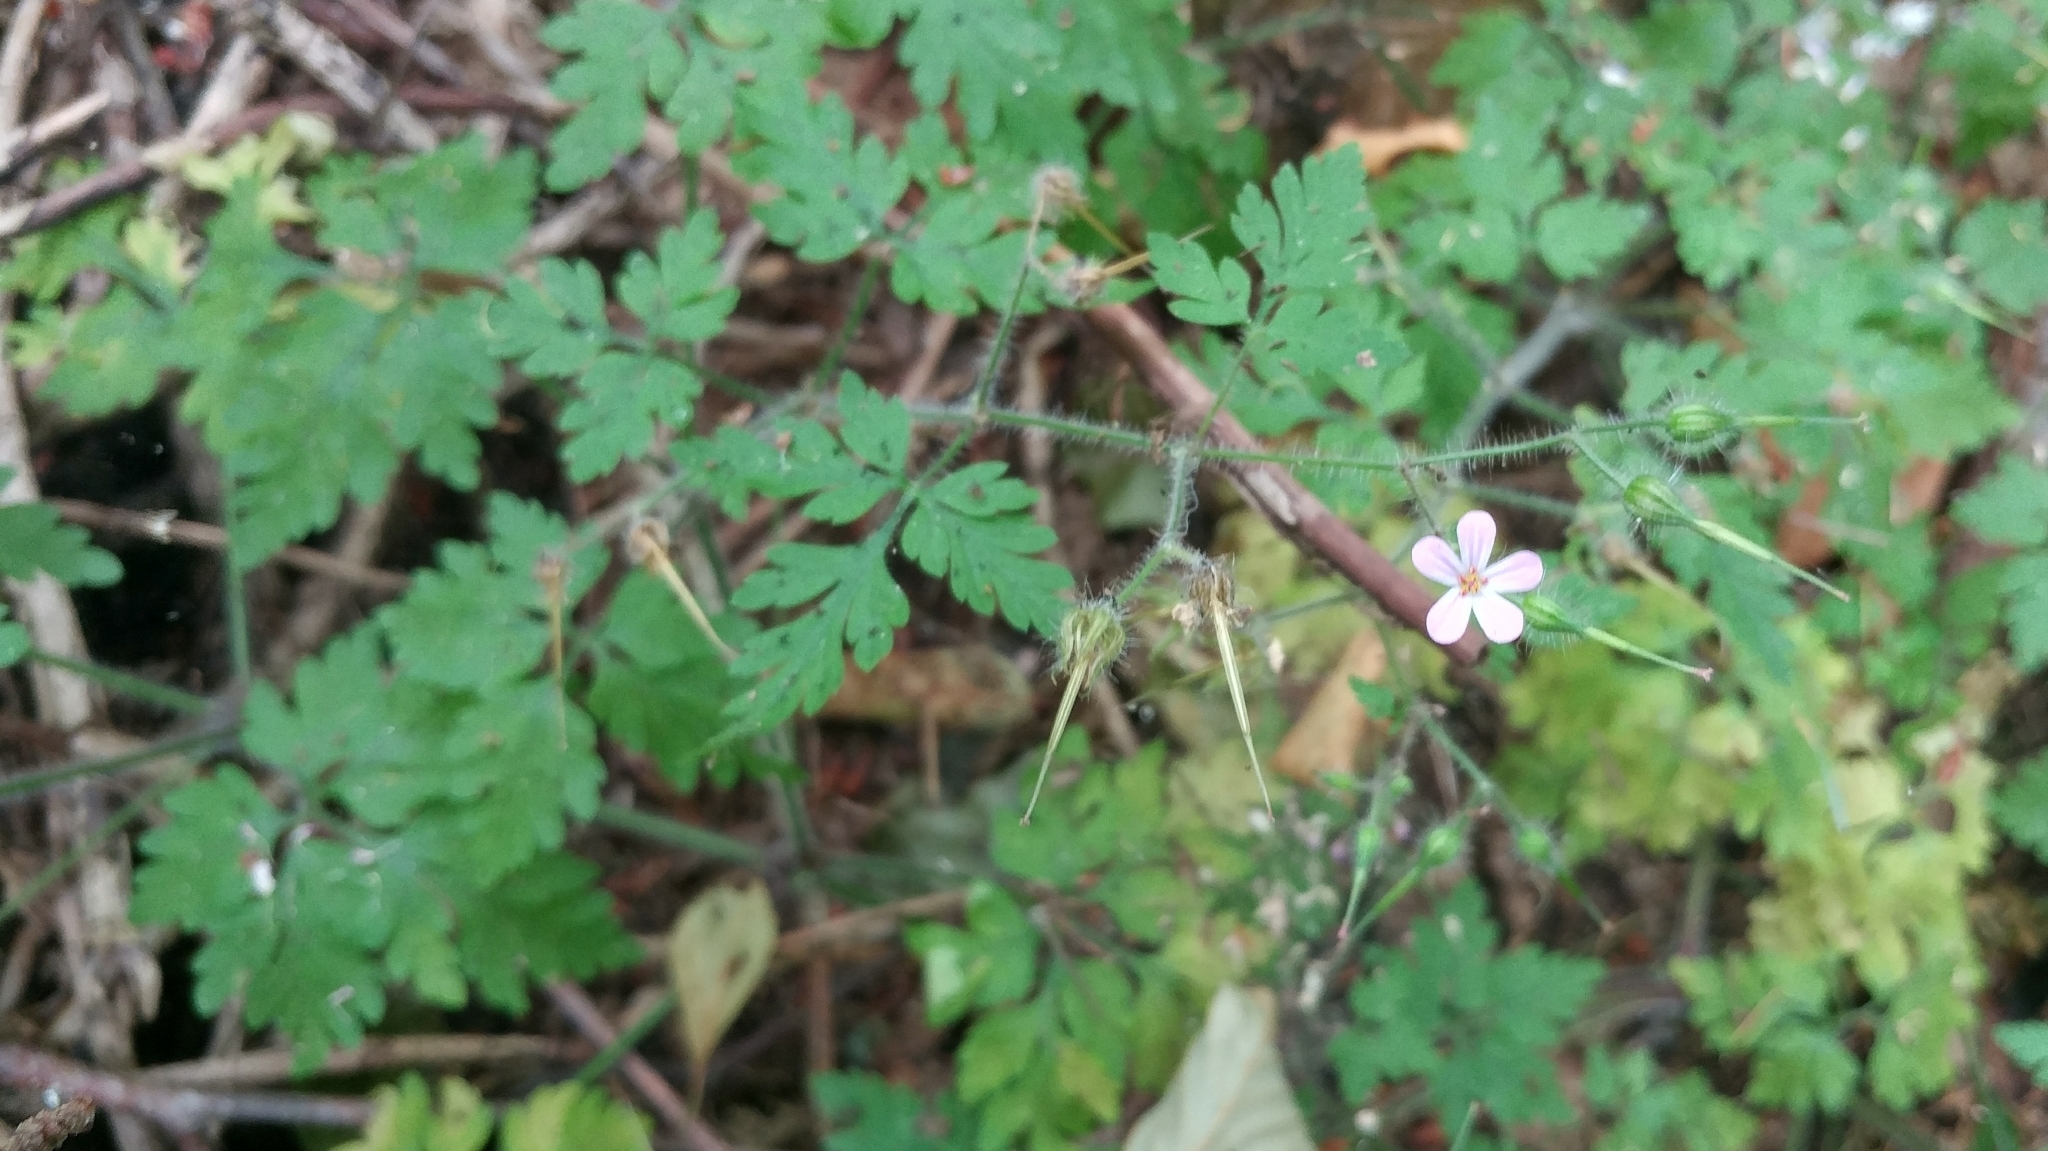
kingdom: Plantae
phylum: Tracheophyta
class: Magnoliopsida
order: Geraniales
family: Geraniaceae
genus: Geranium
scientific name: Geranium robertianum
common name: Herb-robert
